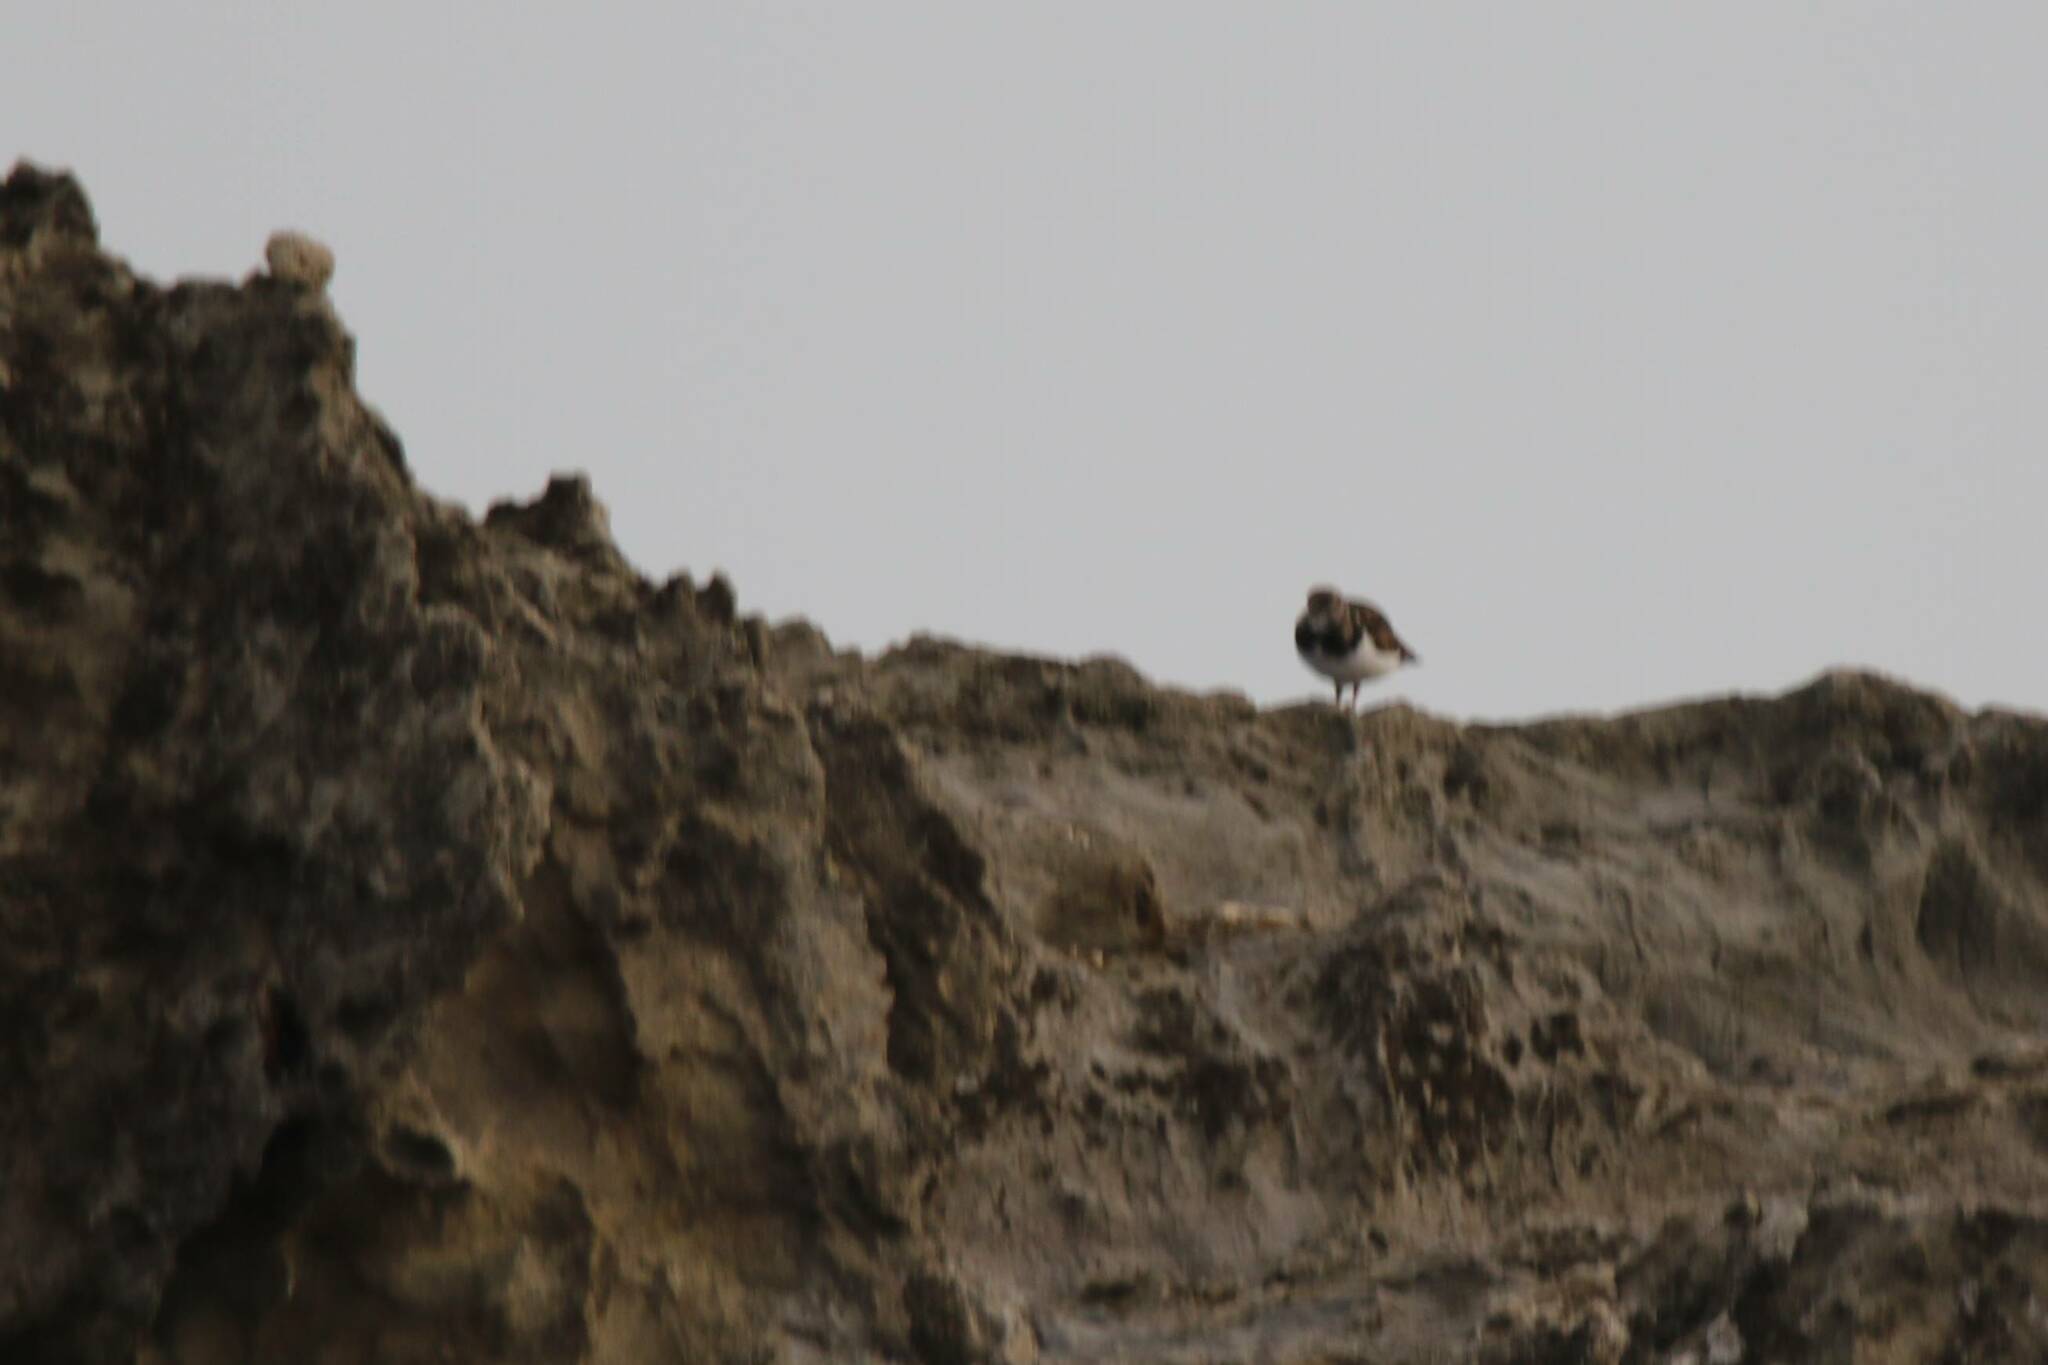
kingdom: Animalia
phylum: Chordata
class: Aves
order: Charadriiformes
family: Scolopacidae
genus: Arenaria
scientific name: Arenaria interpres
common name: Ruddy turnstone
